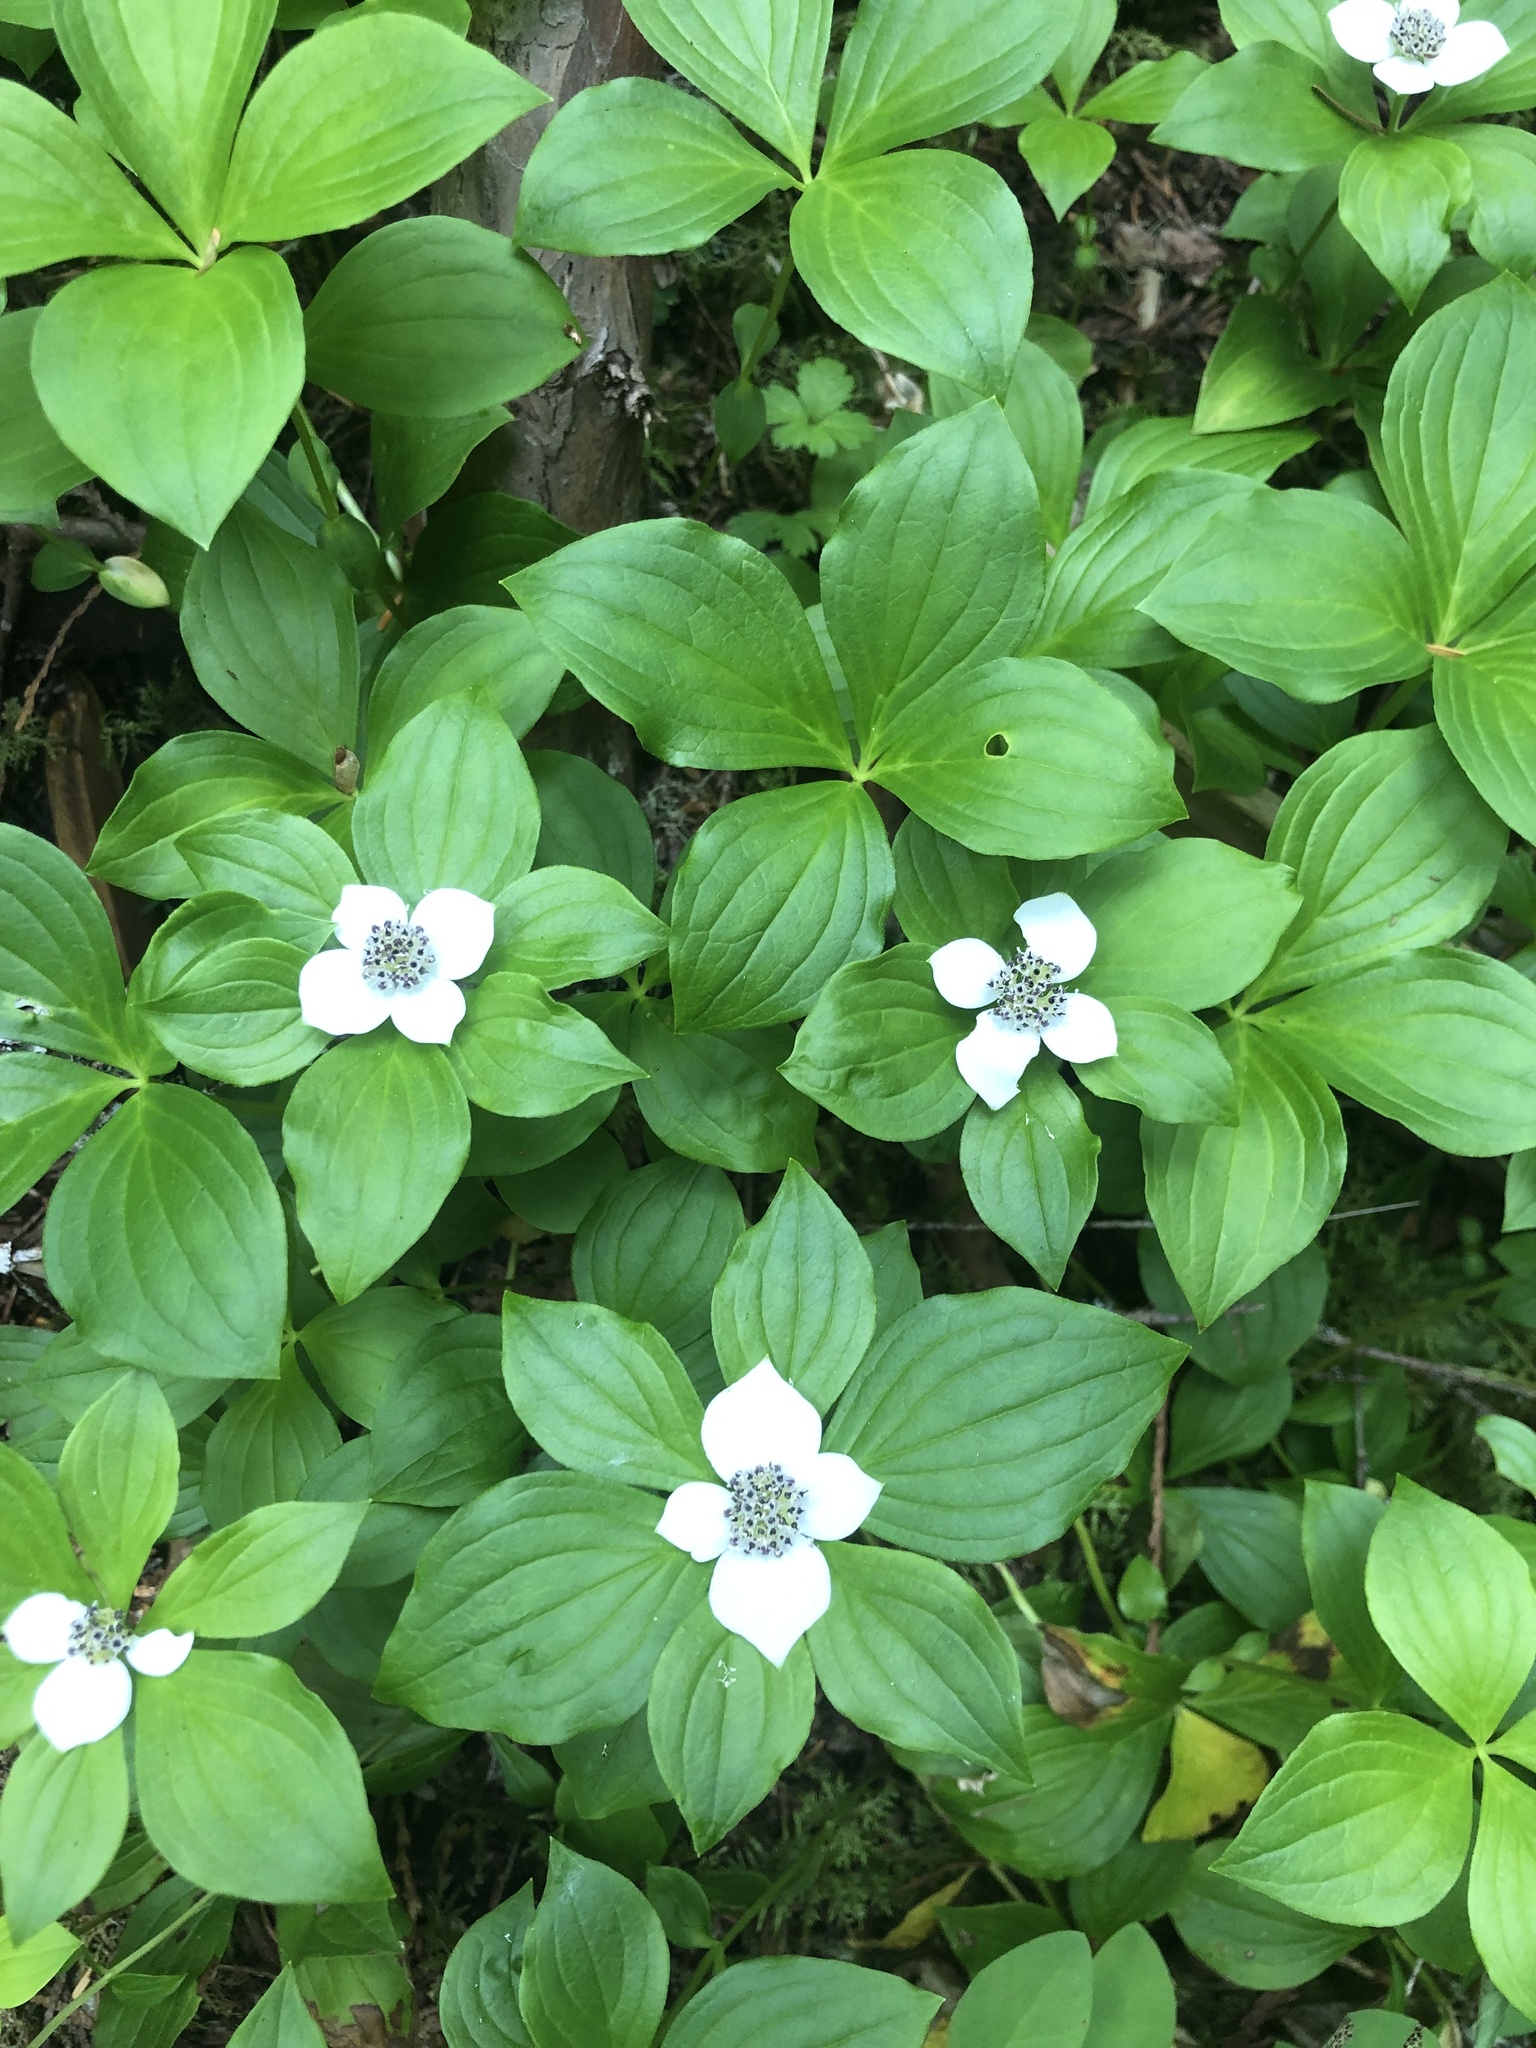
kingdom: Plantae
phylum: Tracheophyta
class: Magnoliopsida
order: Cornales
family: Cornaceae
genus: Cornus
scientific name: Cornus unalaschkensis
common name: Alaska bunchberry
